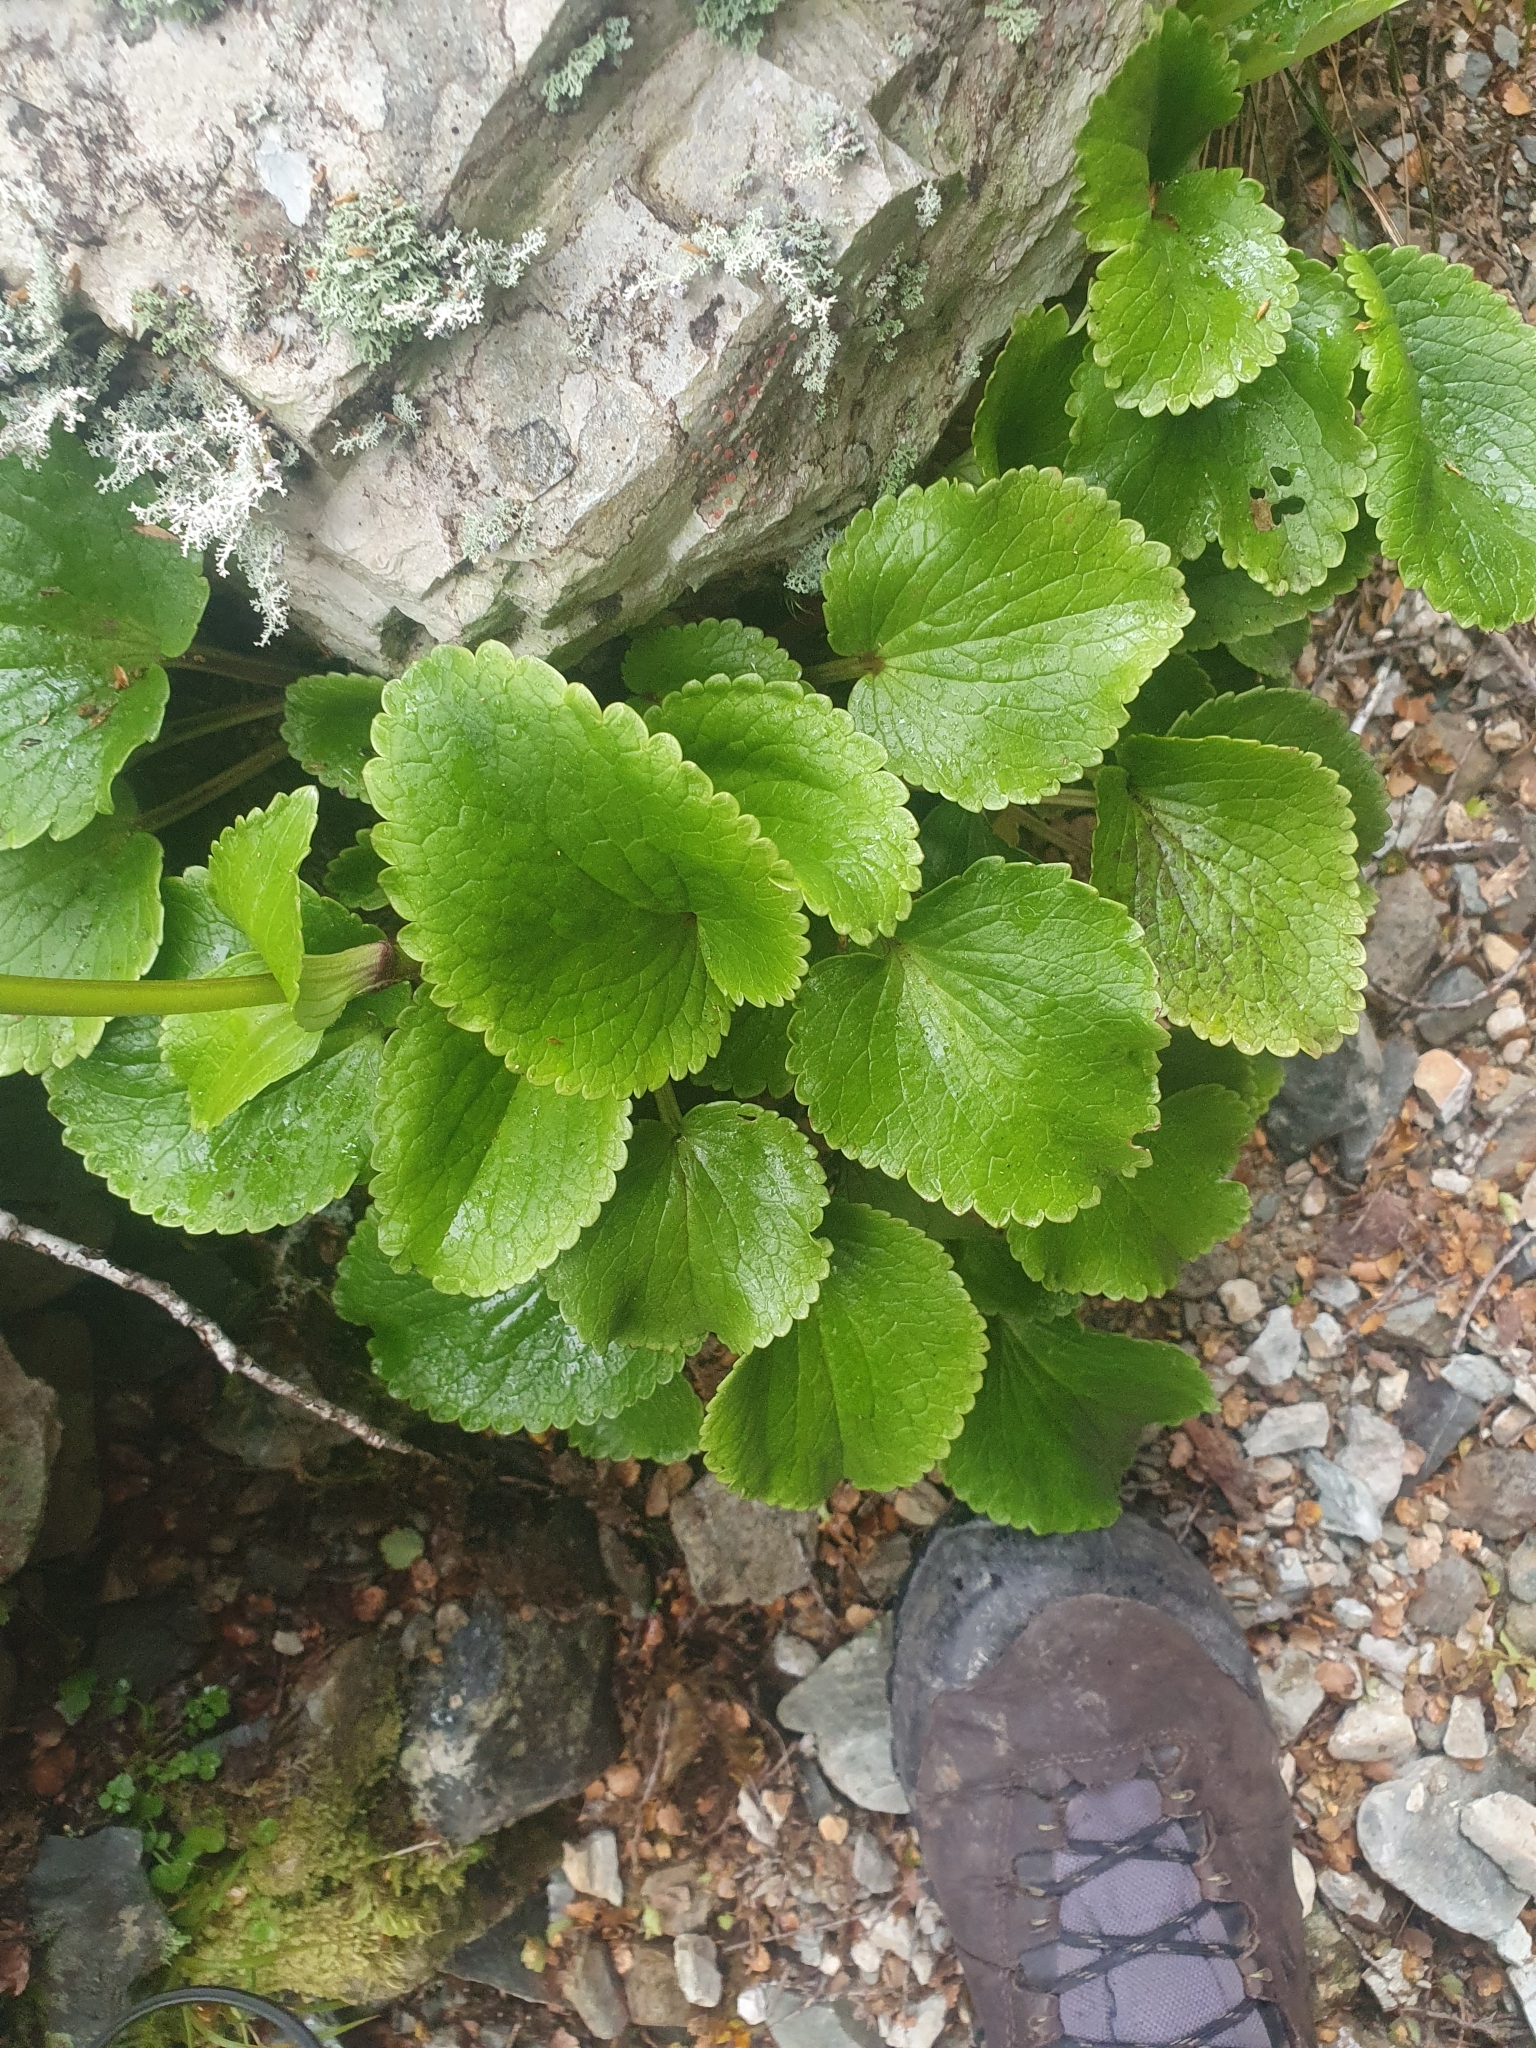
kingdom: Plantae
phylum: Tracheophyta
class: Magnoliopsida
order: Lamiales
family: Plantaginaceae
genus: Ourisia
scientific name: Ourisia macrocarpa
